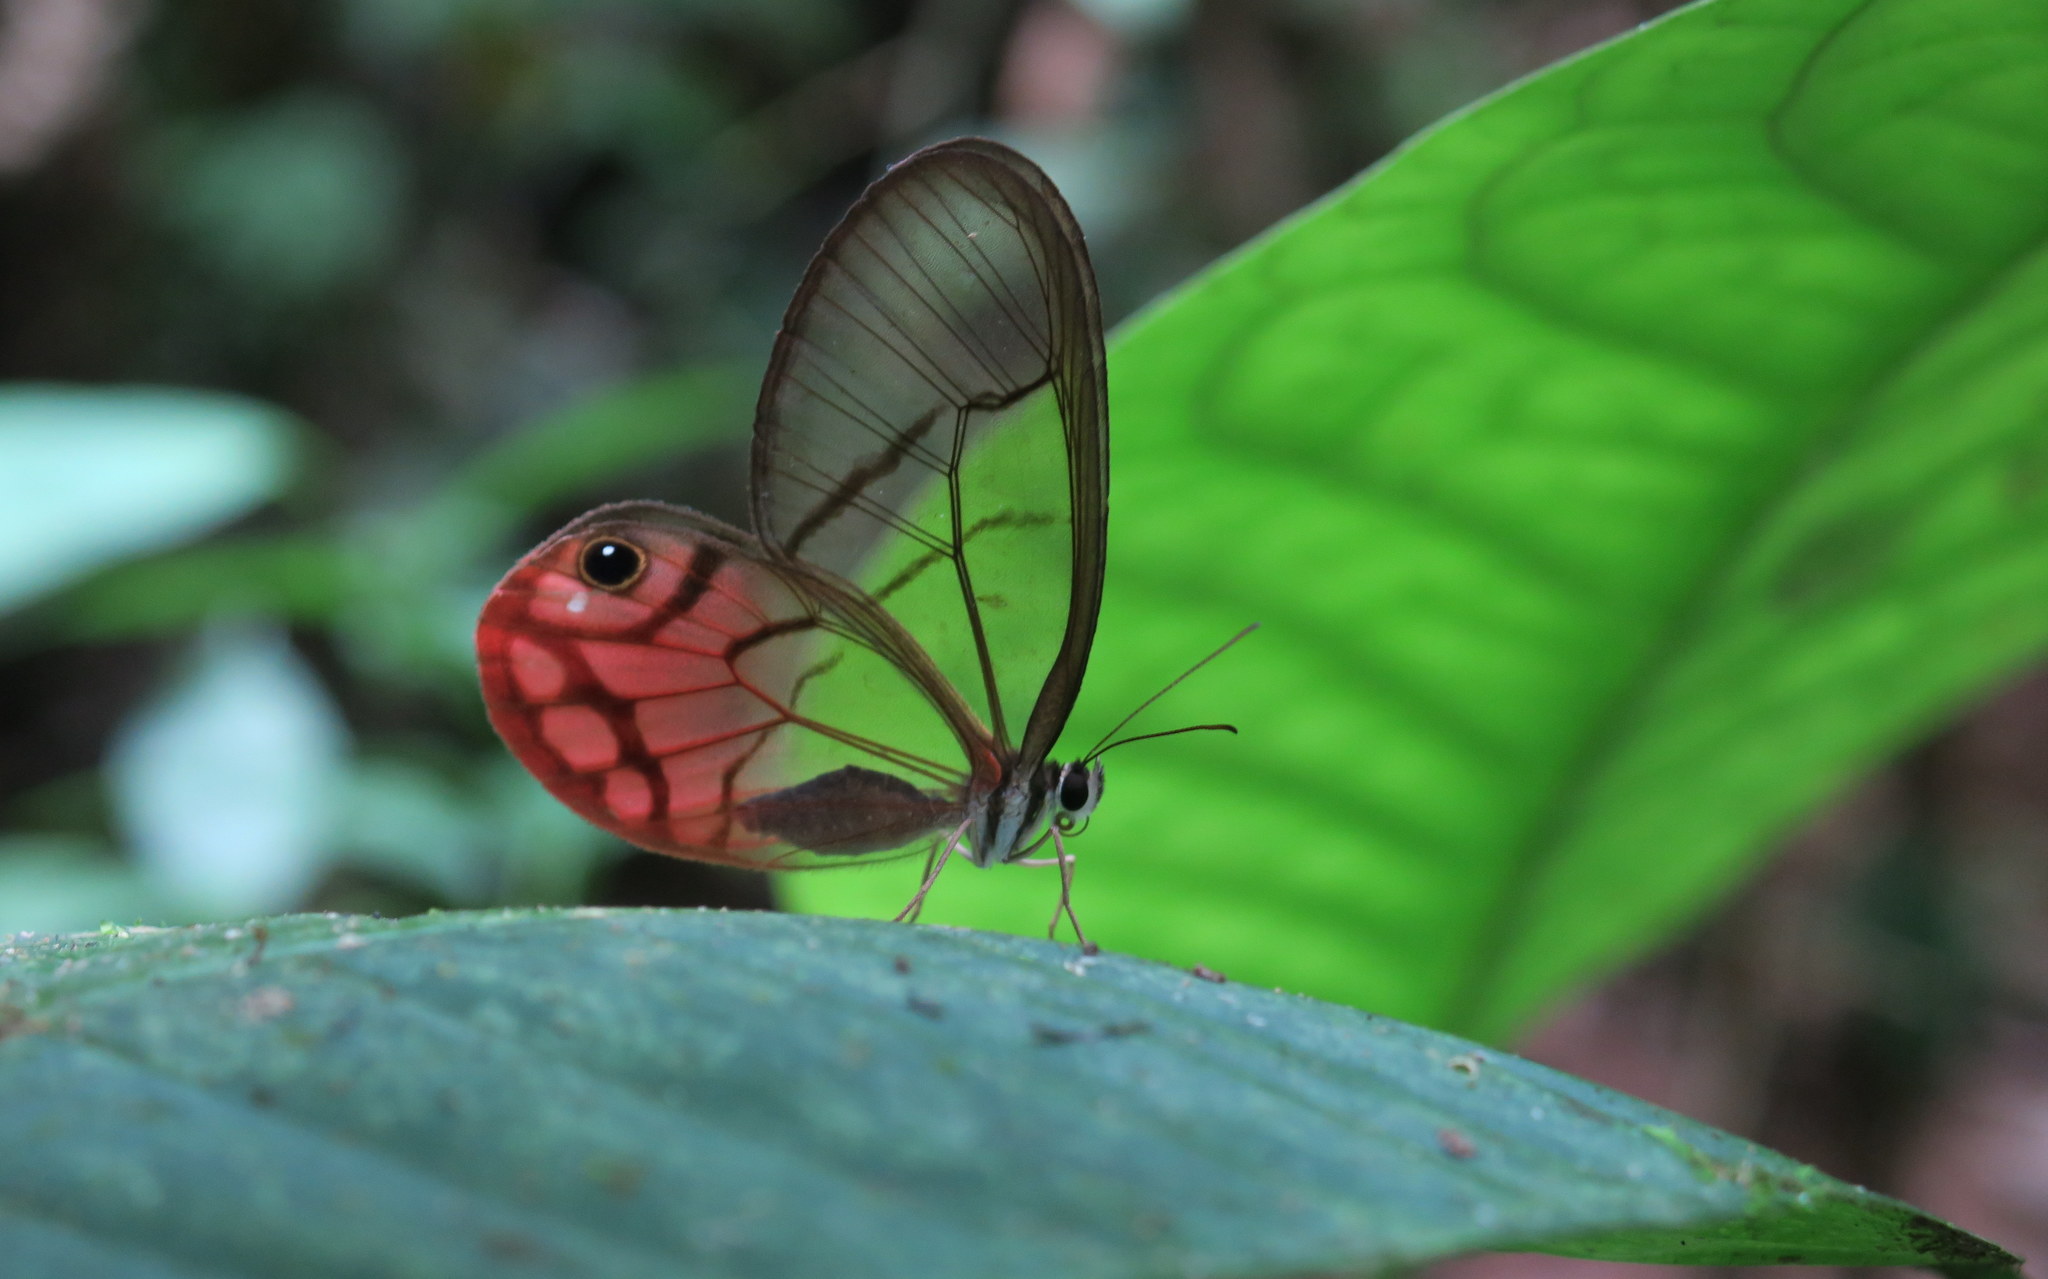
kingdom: Animalia
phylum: Arthropoda
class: Insecta
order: Lepidoptera
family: Nymphalidae
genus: Cithaerias
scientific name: Cithaerias pireta
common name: Rusted clearwing-satyr
